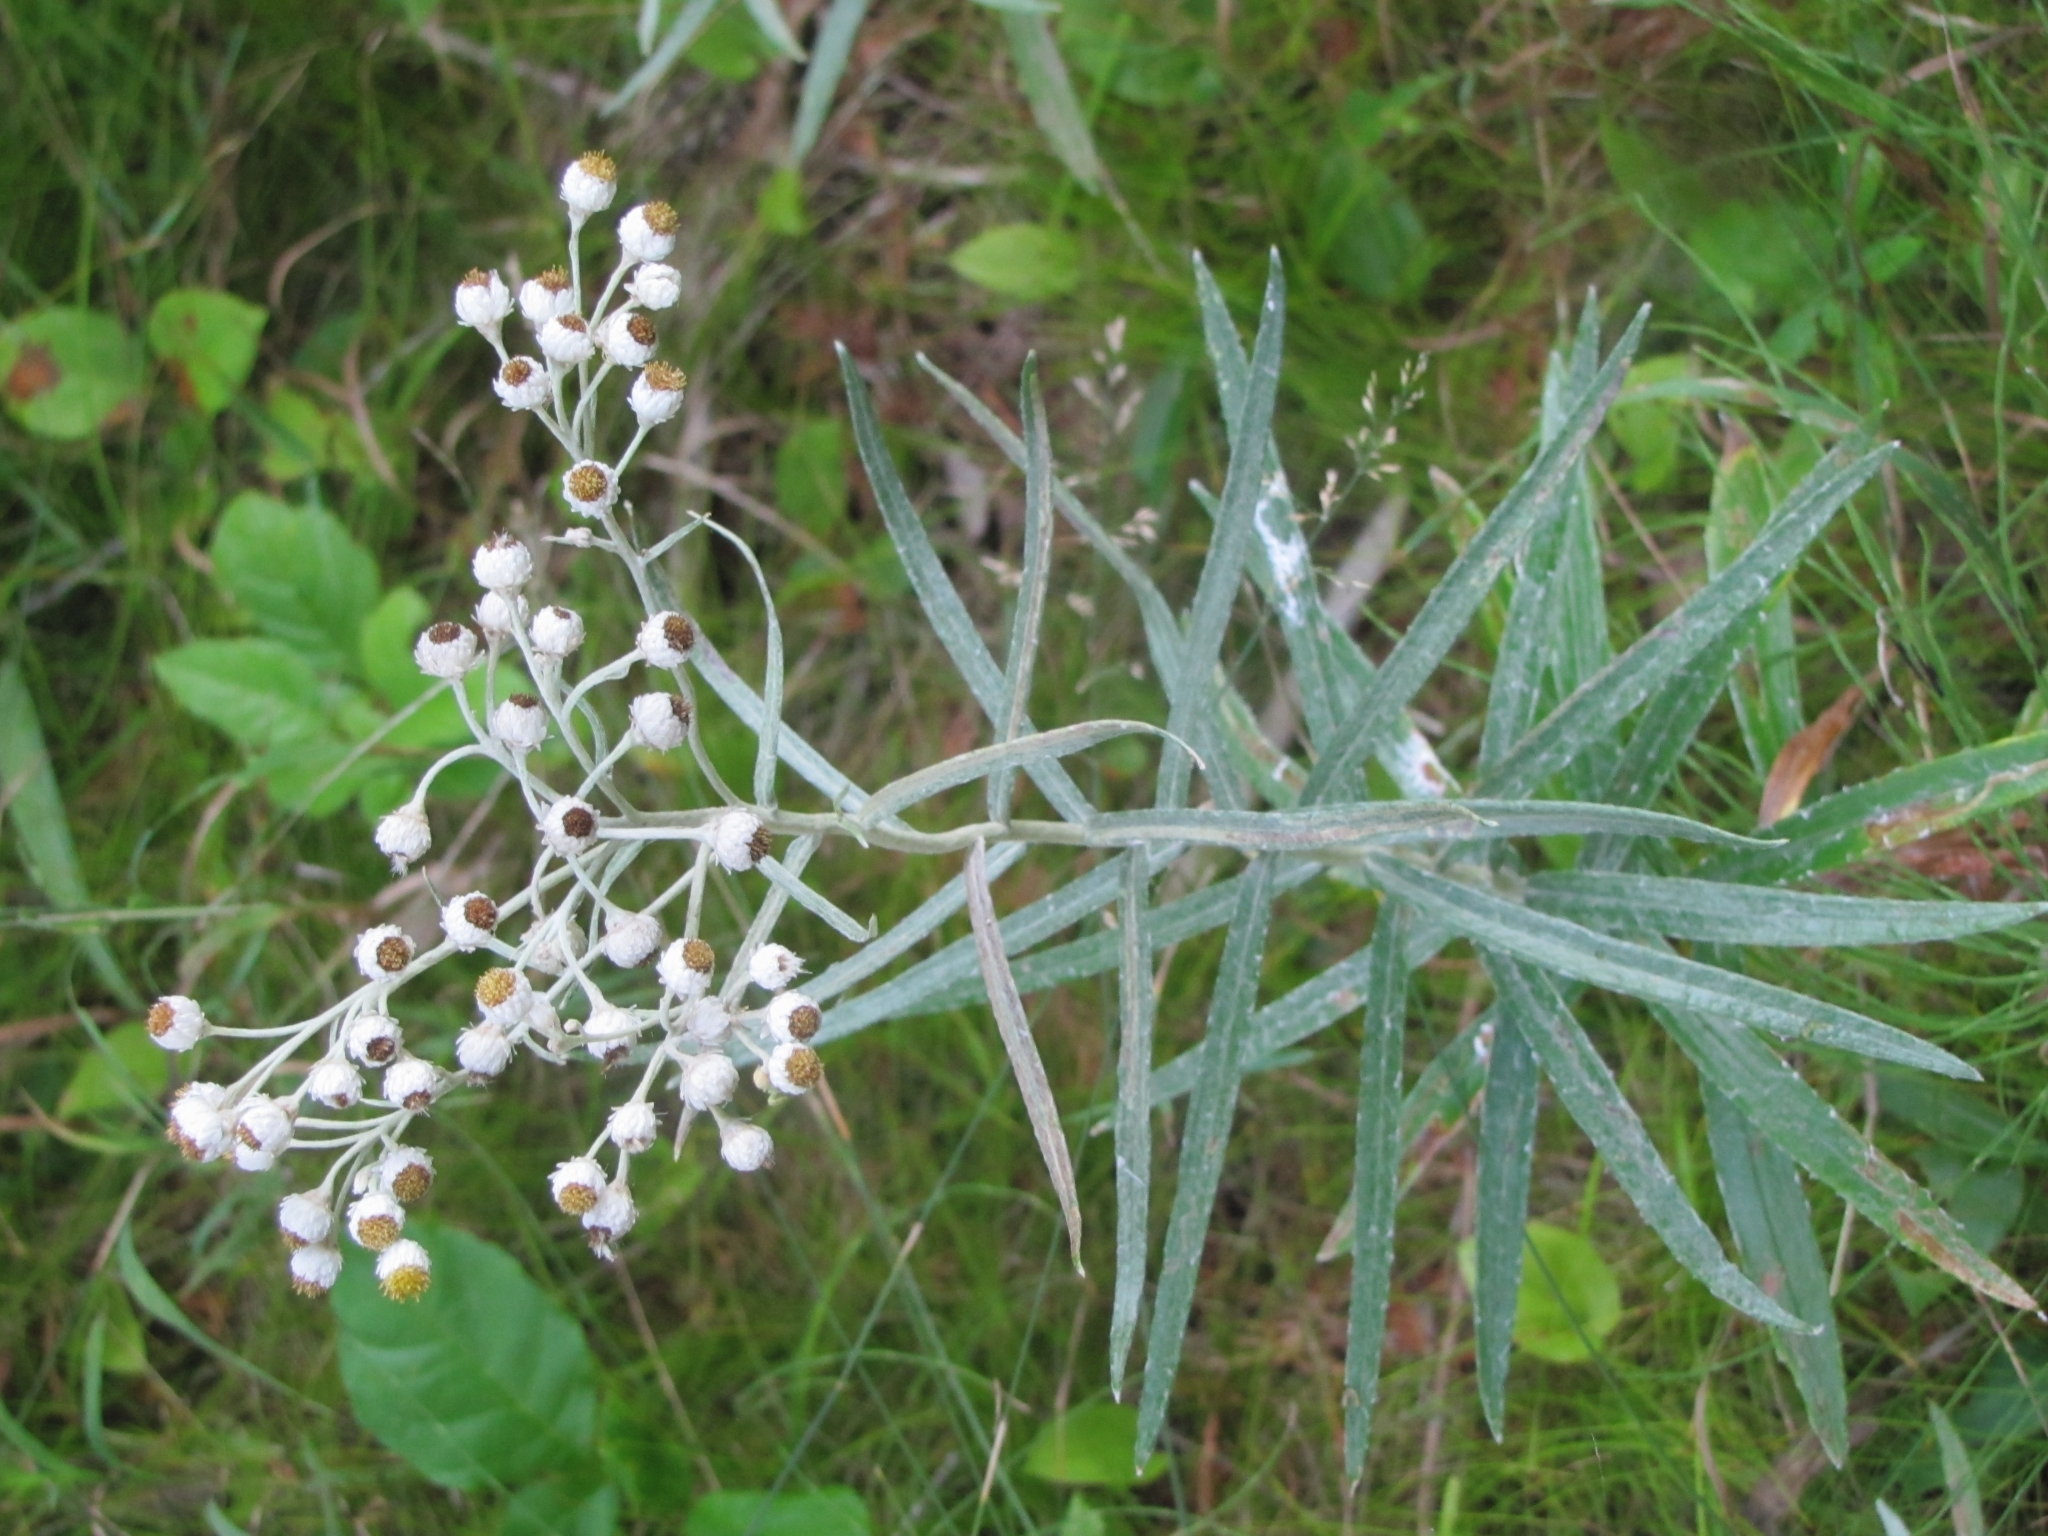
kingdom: Plantae
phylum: Tracheophyta
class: Magnoliopsida
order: Asterales
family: Asteraceae
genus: Anaphalis
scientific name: Anaphalis margaritacea
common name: Pearly everlasting
